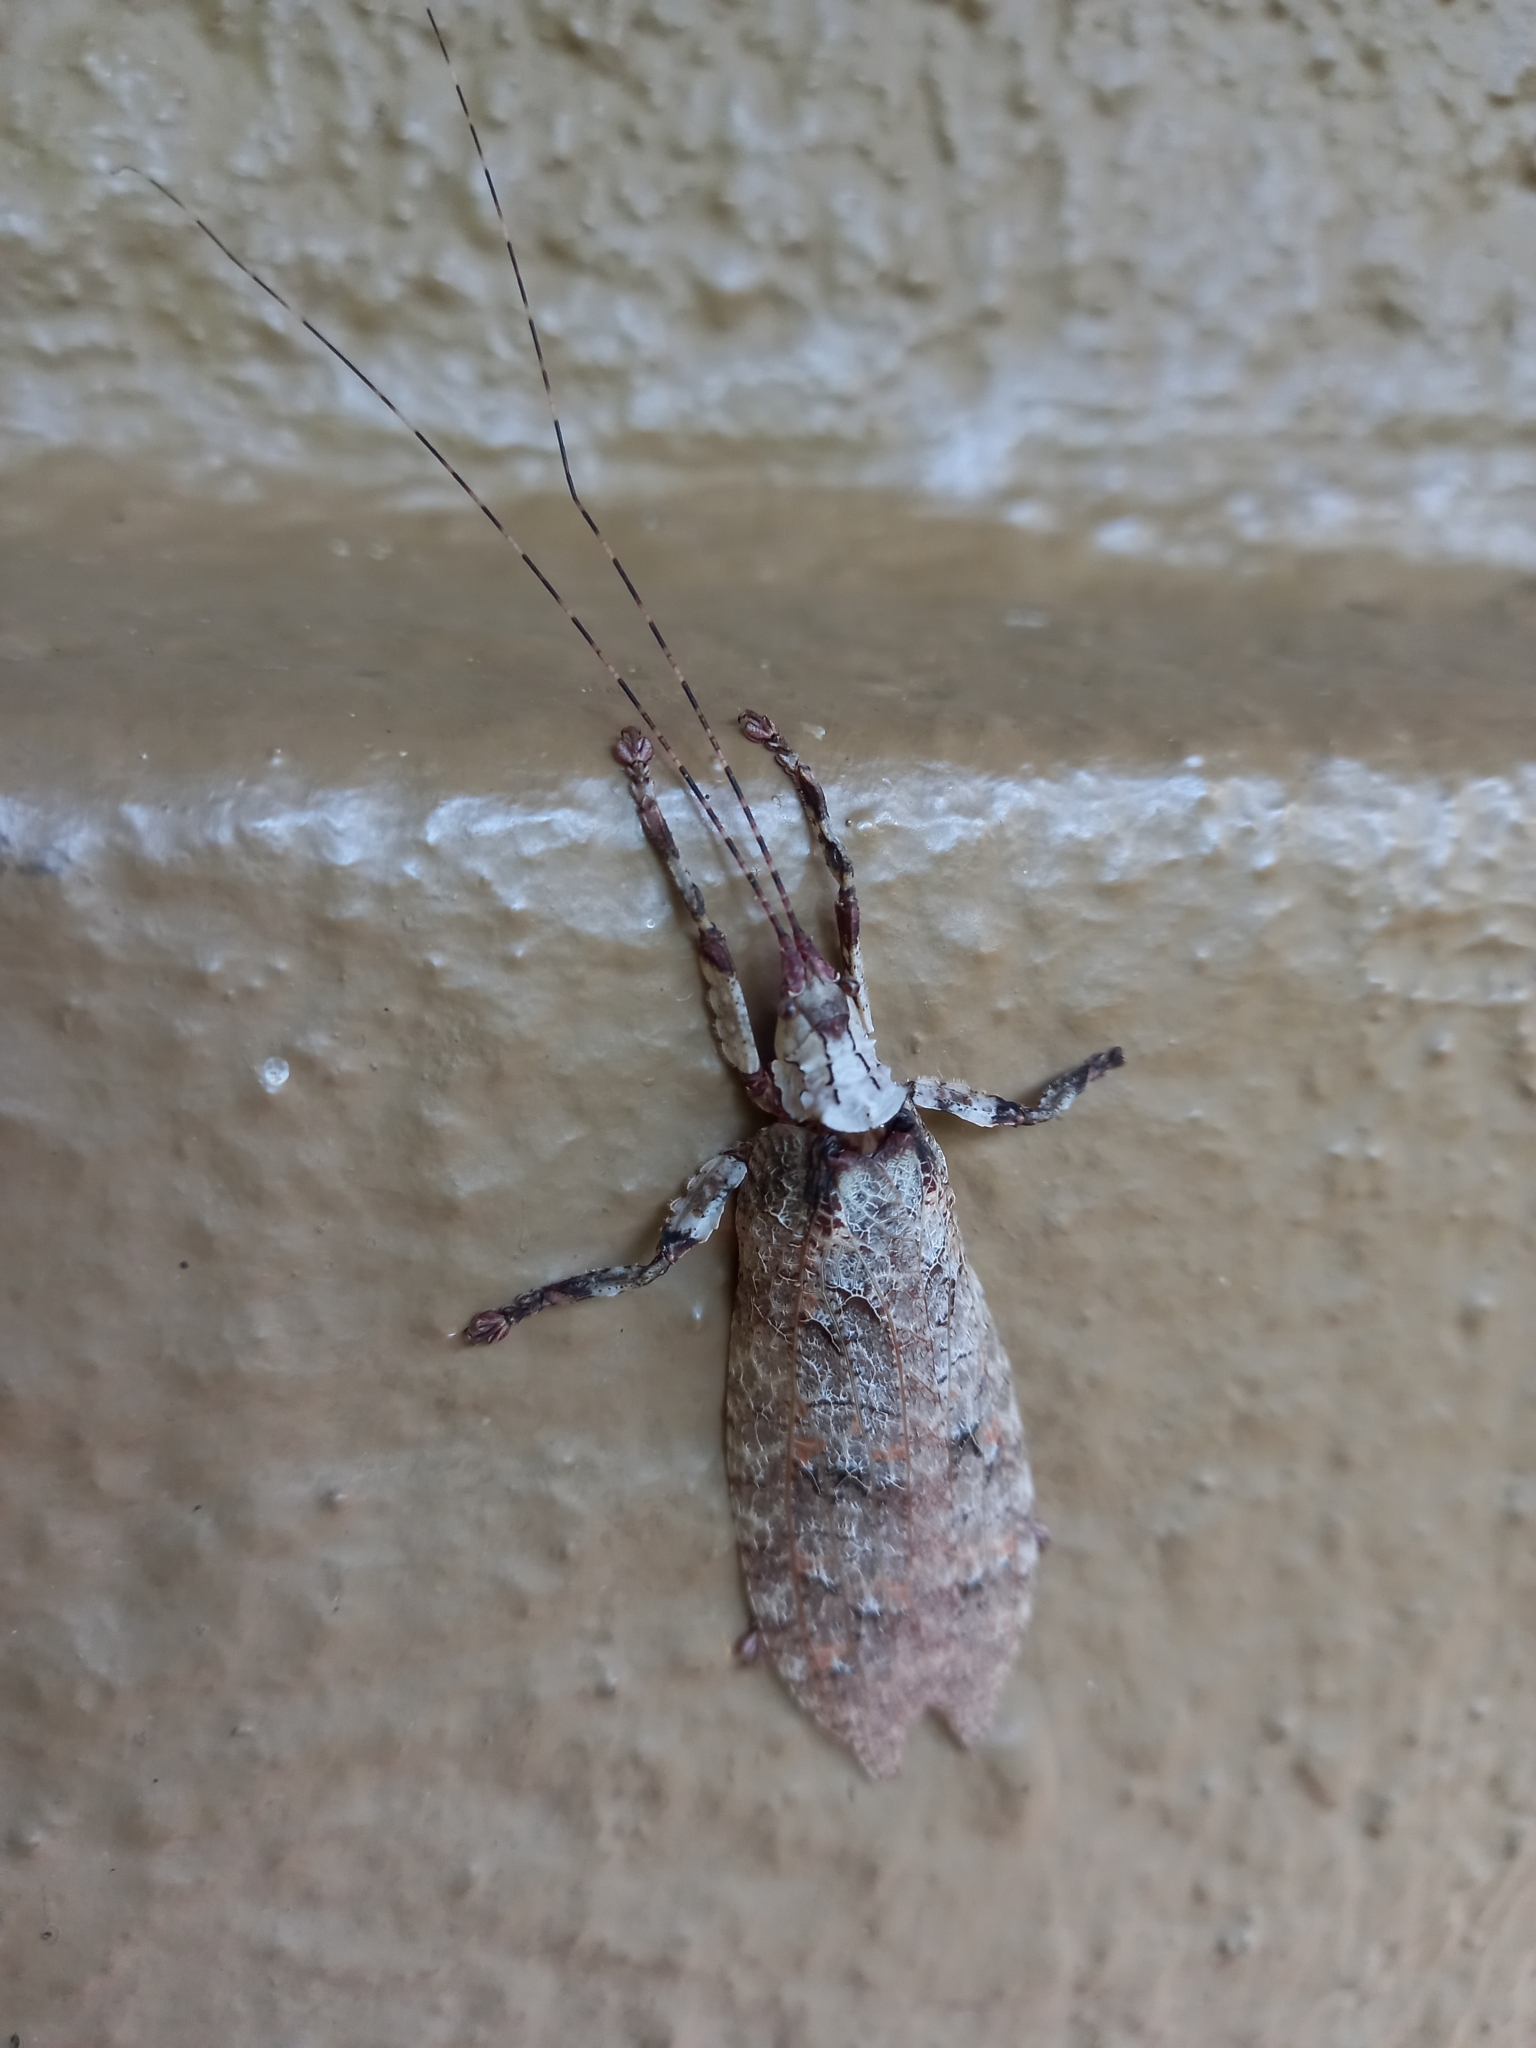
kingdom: Animalia
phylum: Arthropoda
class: Insecta
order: Orthoptera
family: Tettigoniidae
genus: Cymatomera
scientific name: Cymatomera denticollis
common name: Common bark katydid
